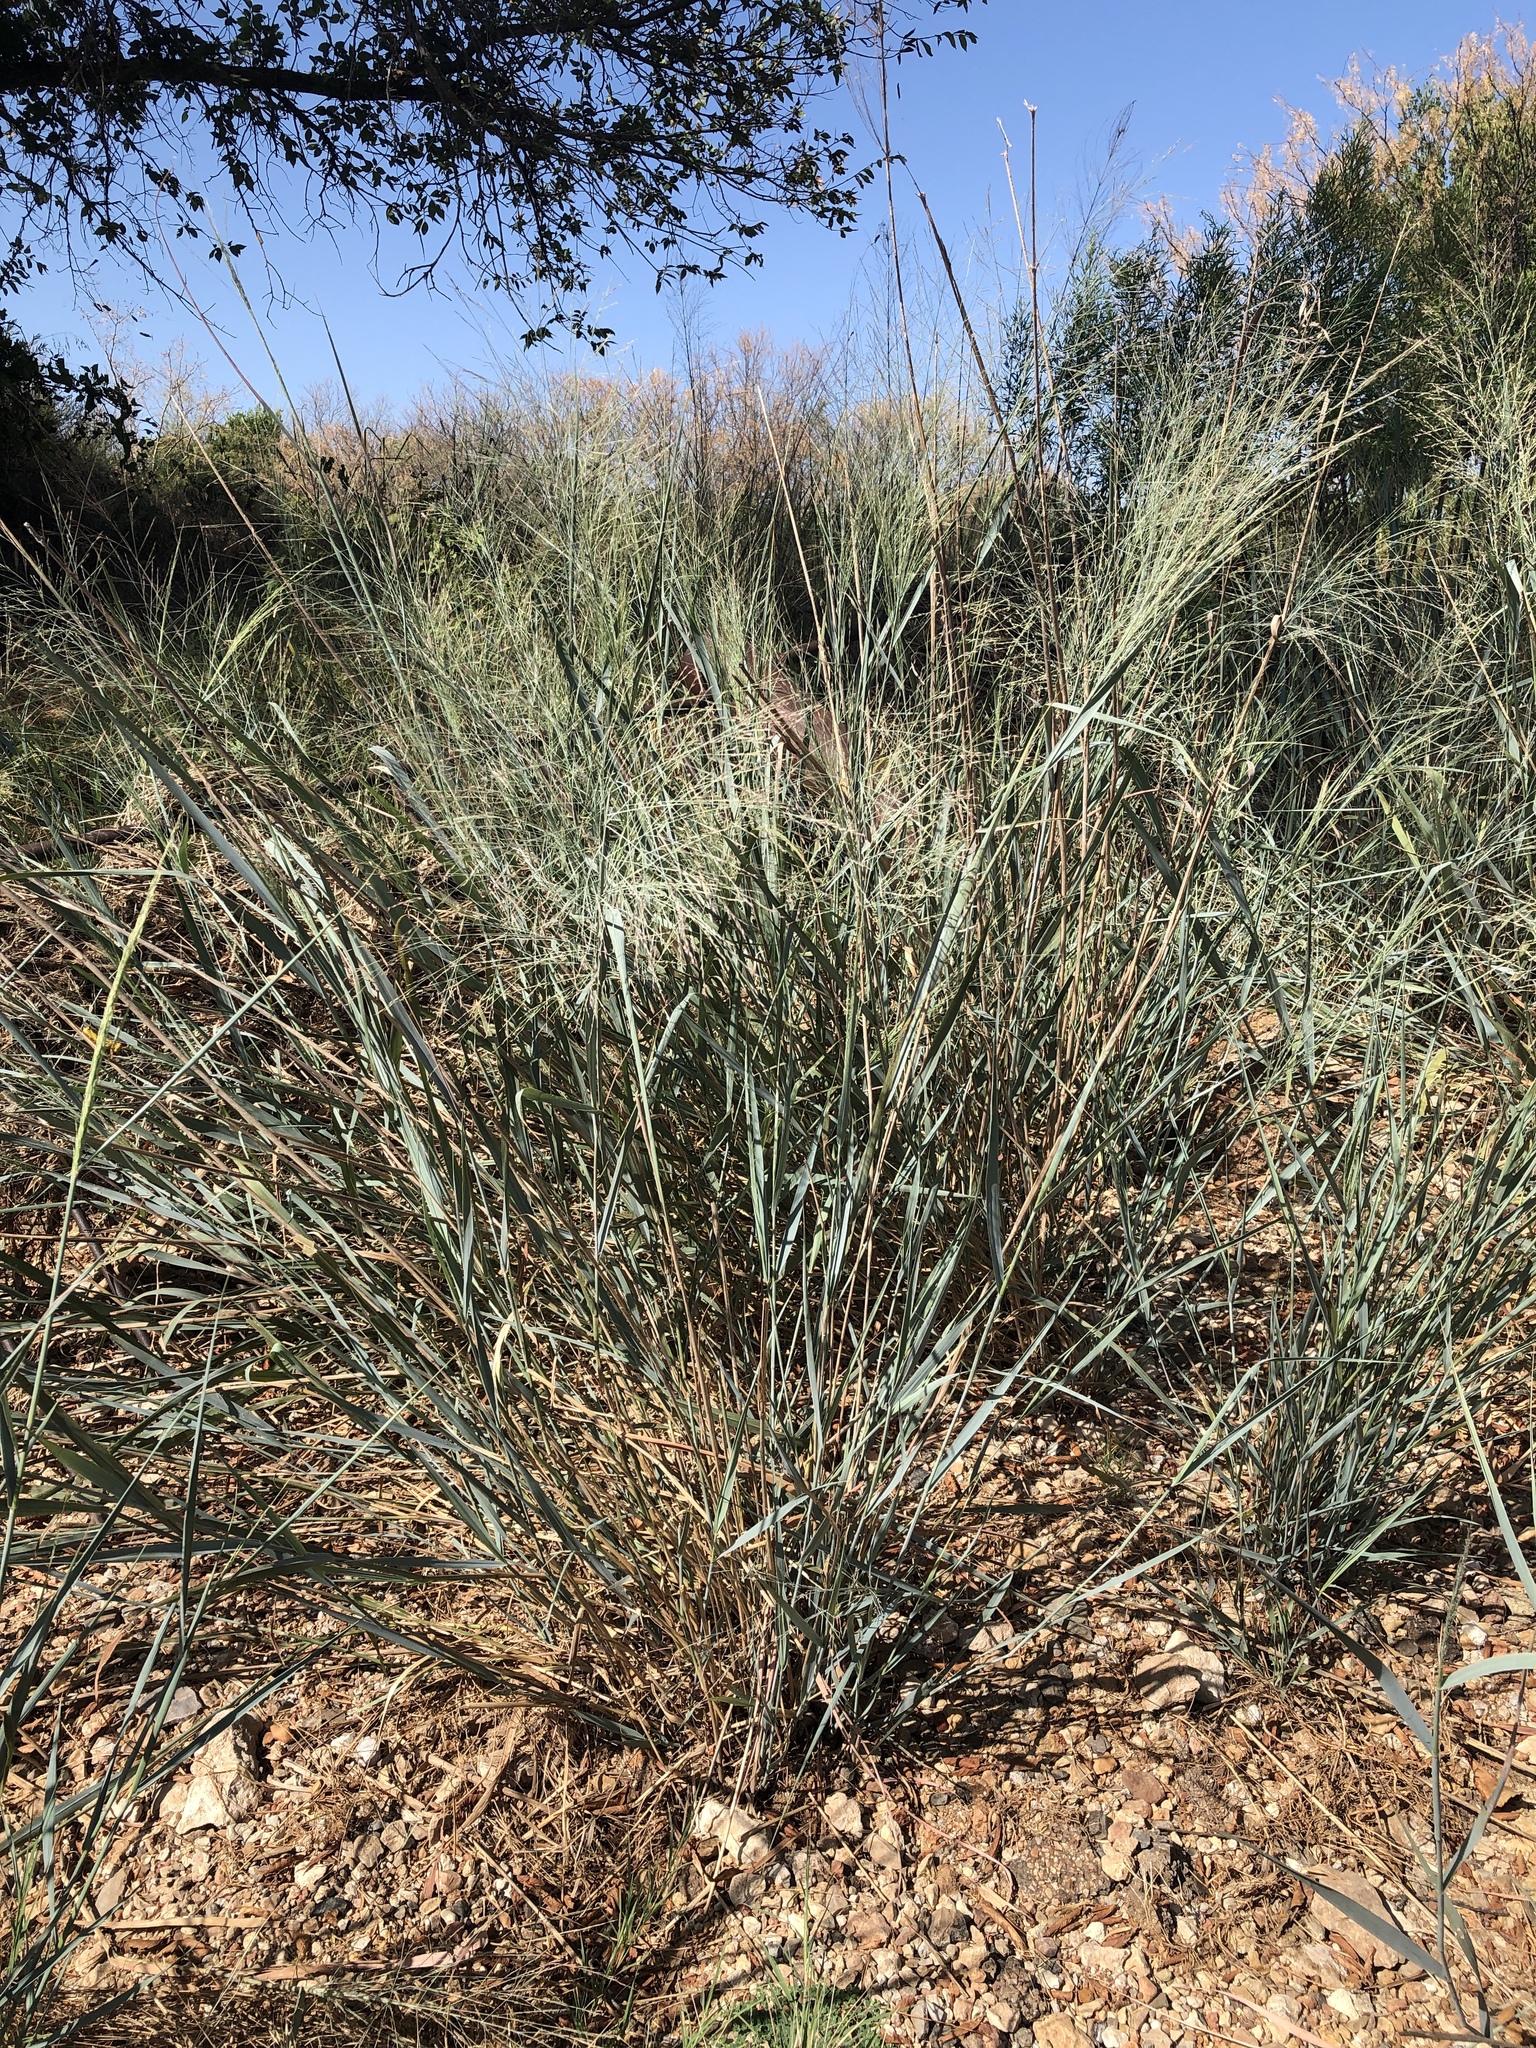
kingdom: Plantae
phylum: Tracheophyta
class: Liliopsida
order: Poales
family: Poaceae
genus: Panicum
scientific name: Panicum virgatum
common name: Switchgrass
